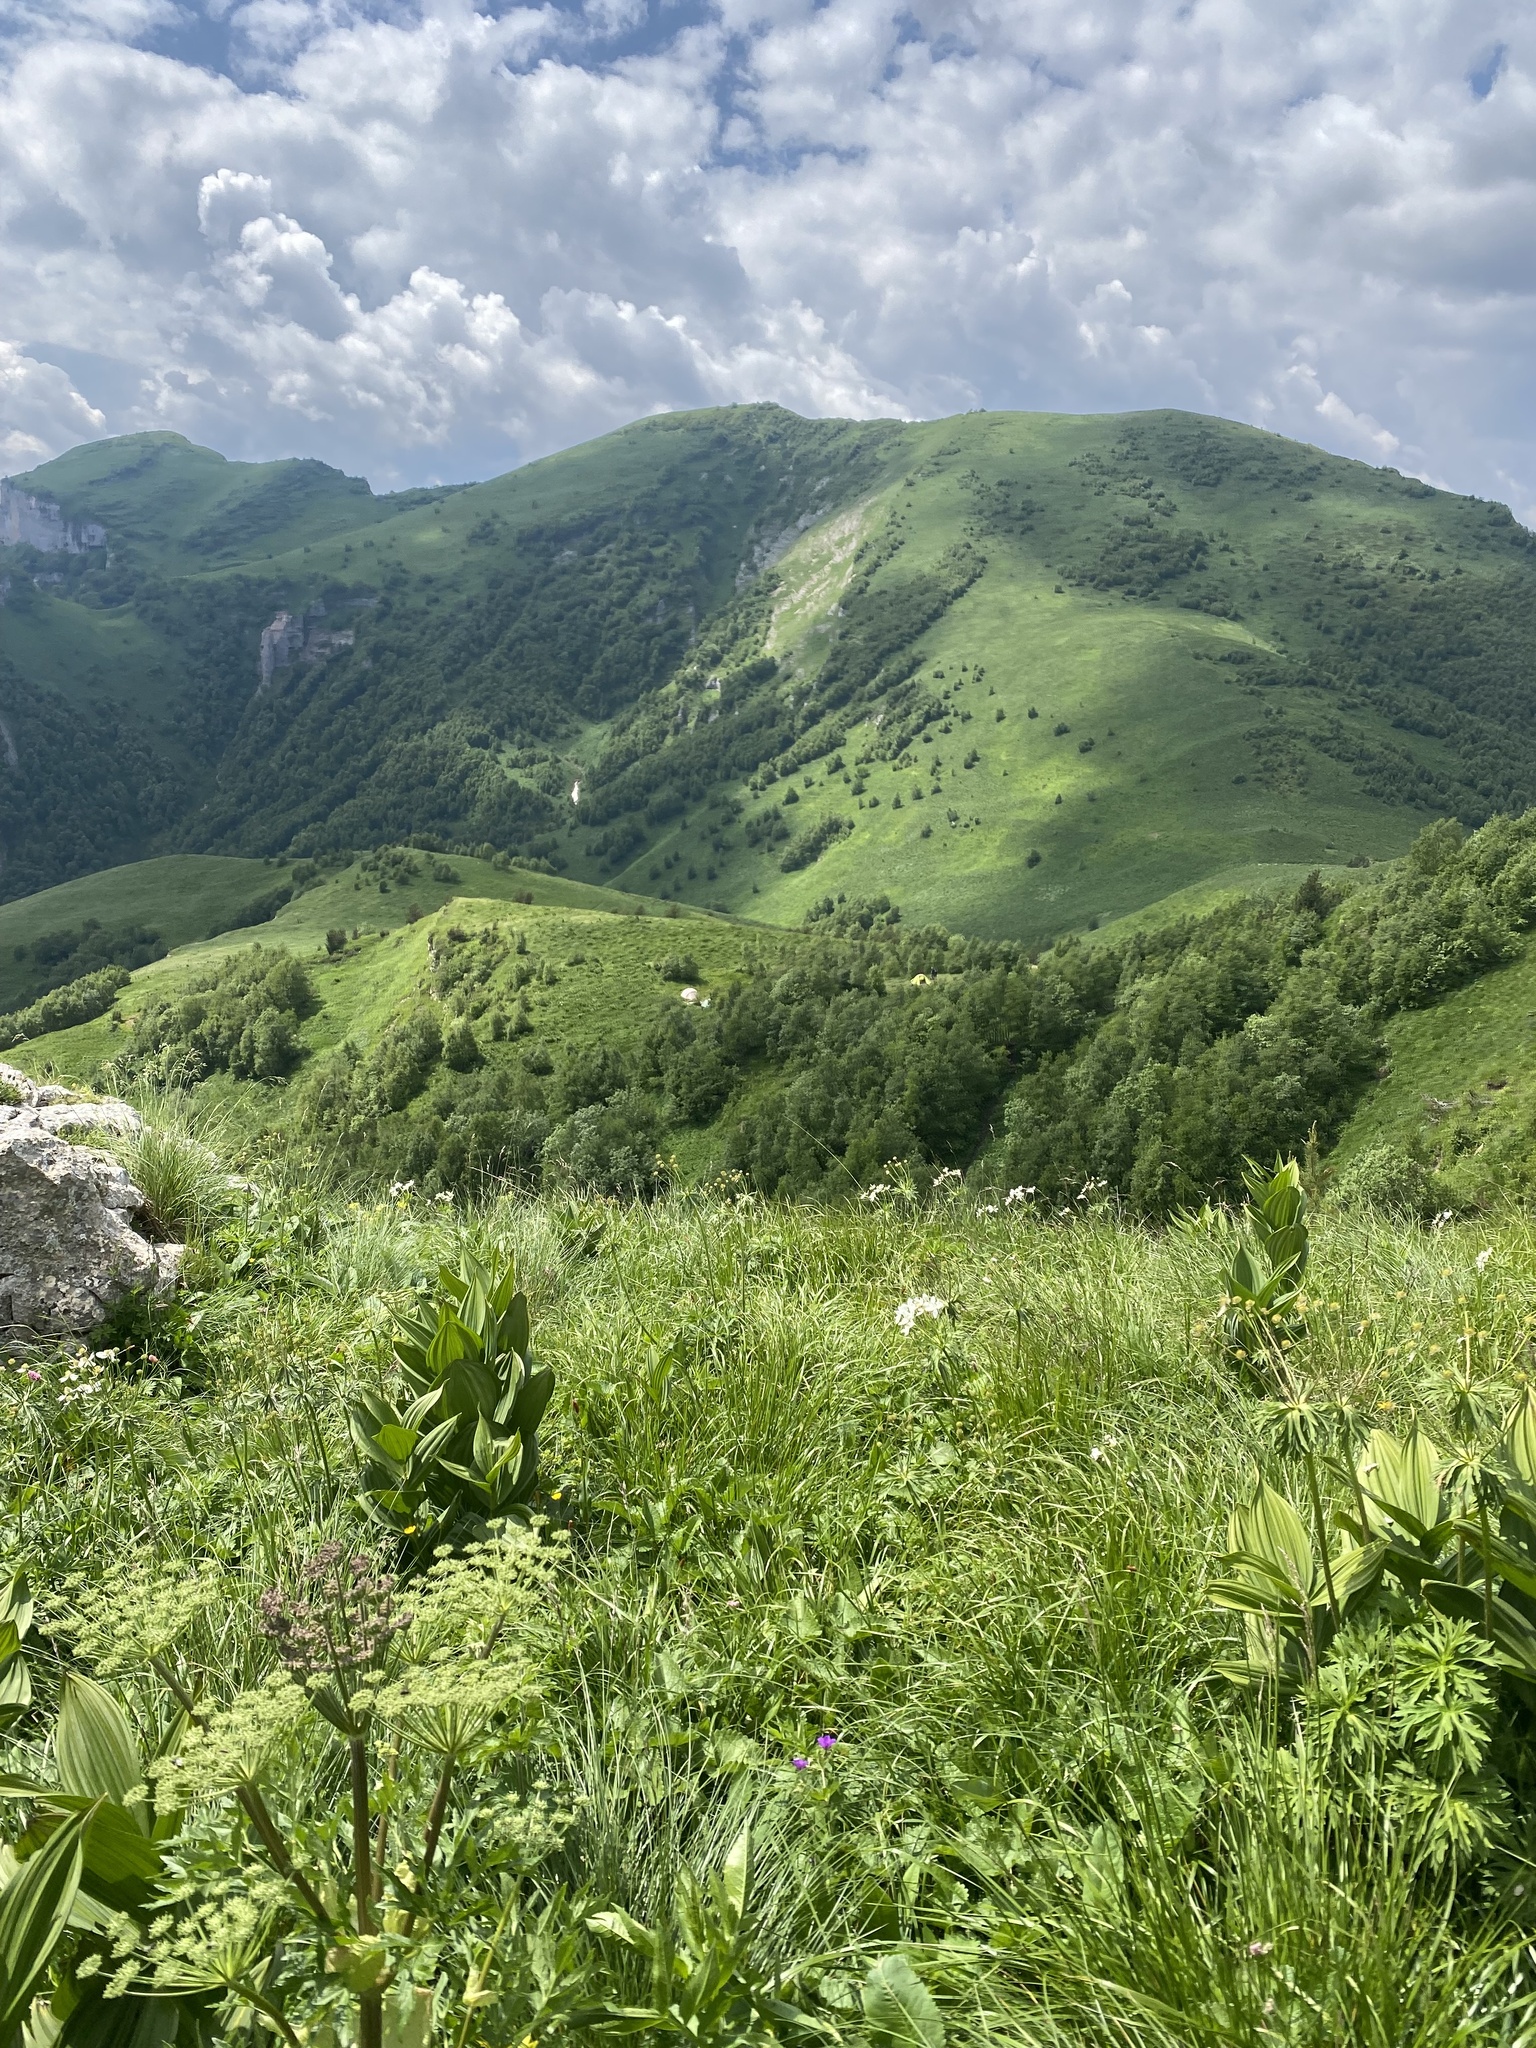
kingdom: Plantae
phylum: Tracheophyta
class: Liliopsida
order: Liliales
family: Melanthiaceae
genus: Veratrum
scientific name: Veratrum lobelianum
